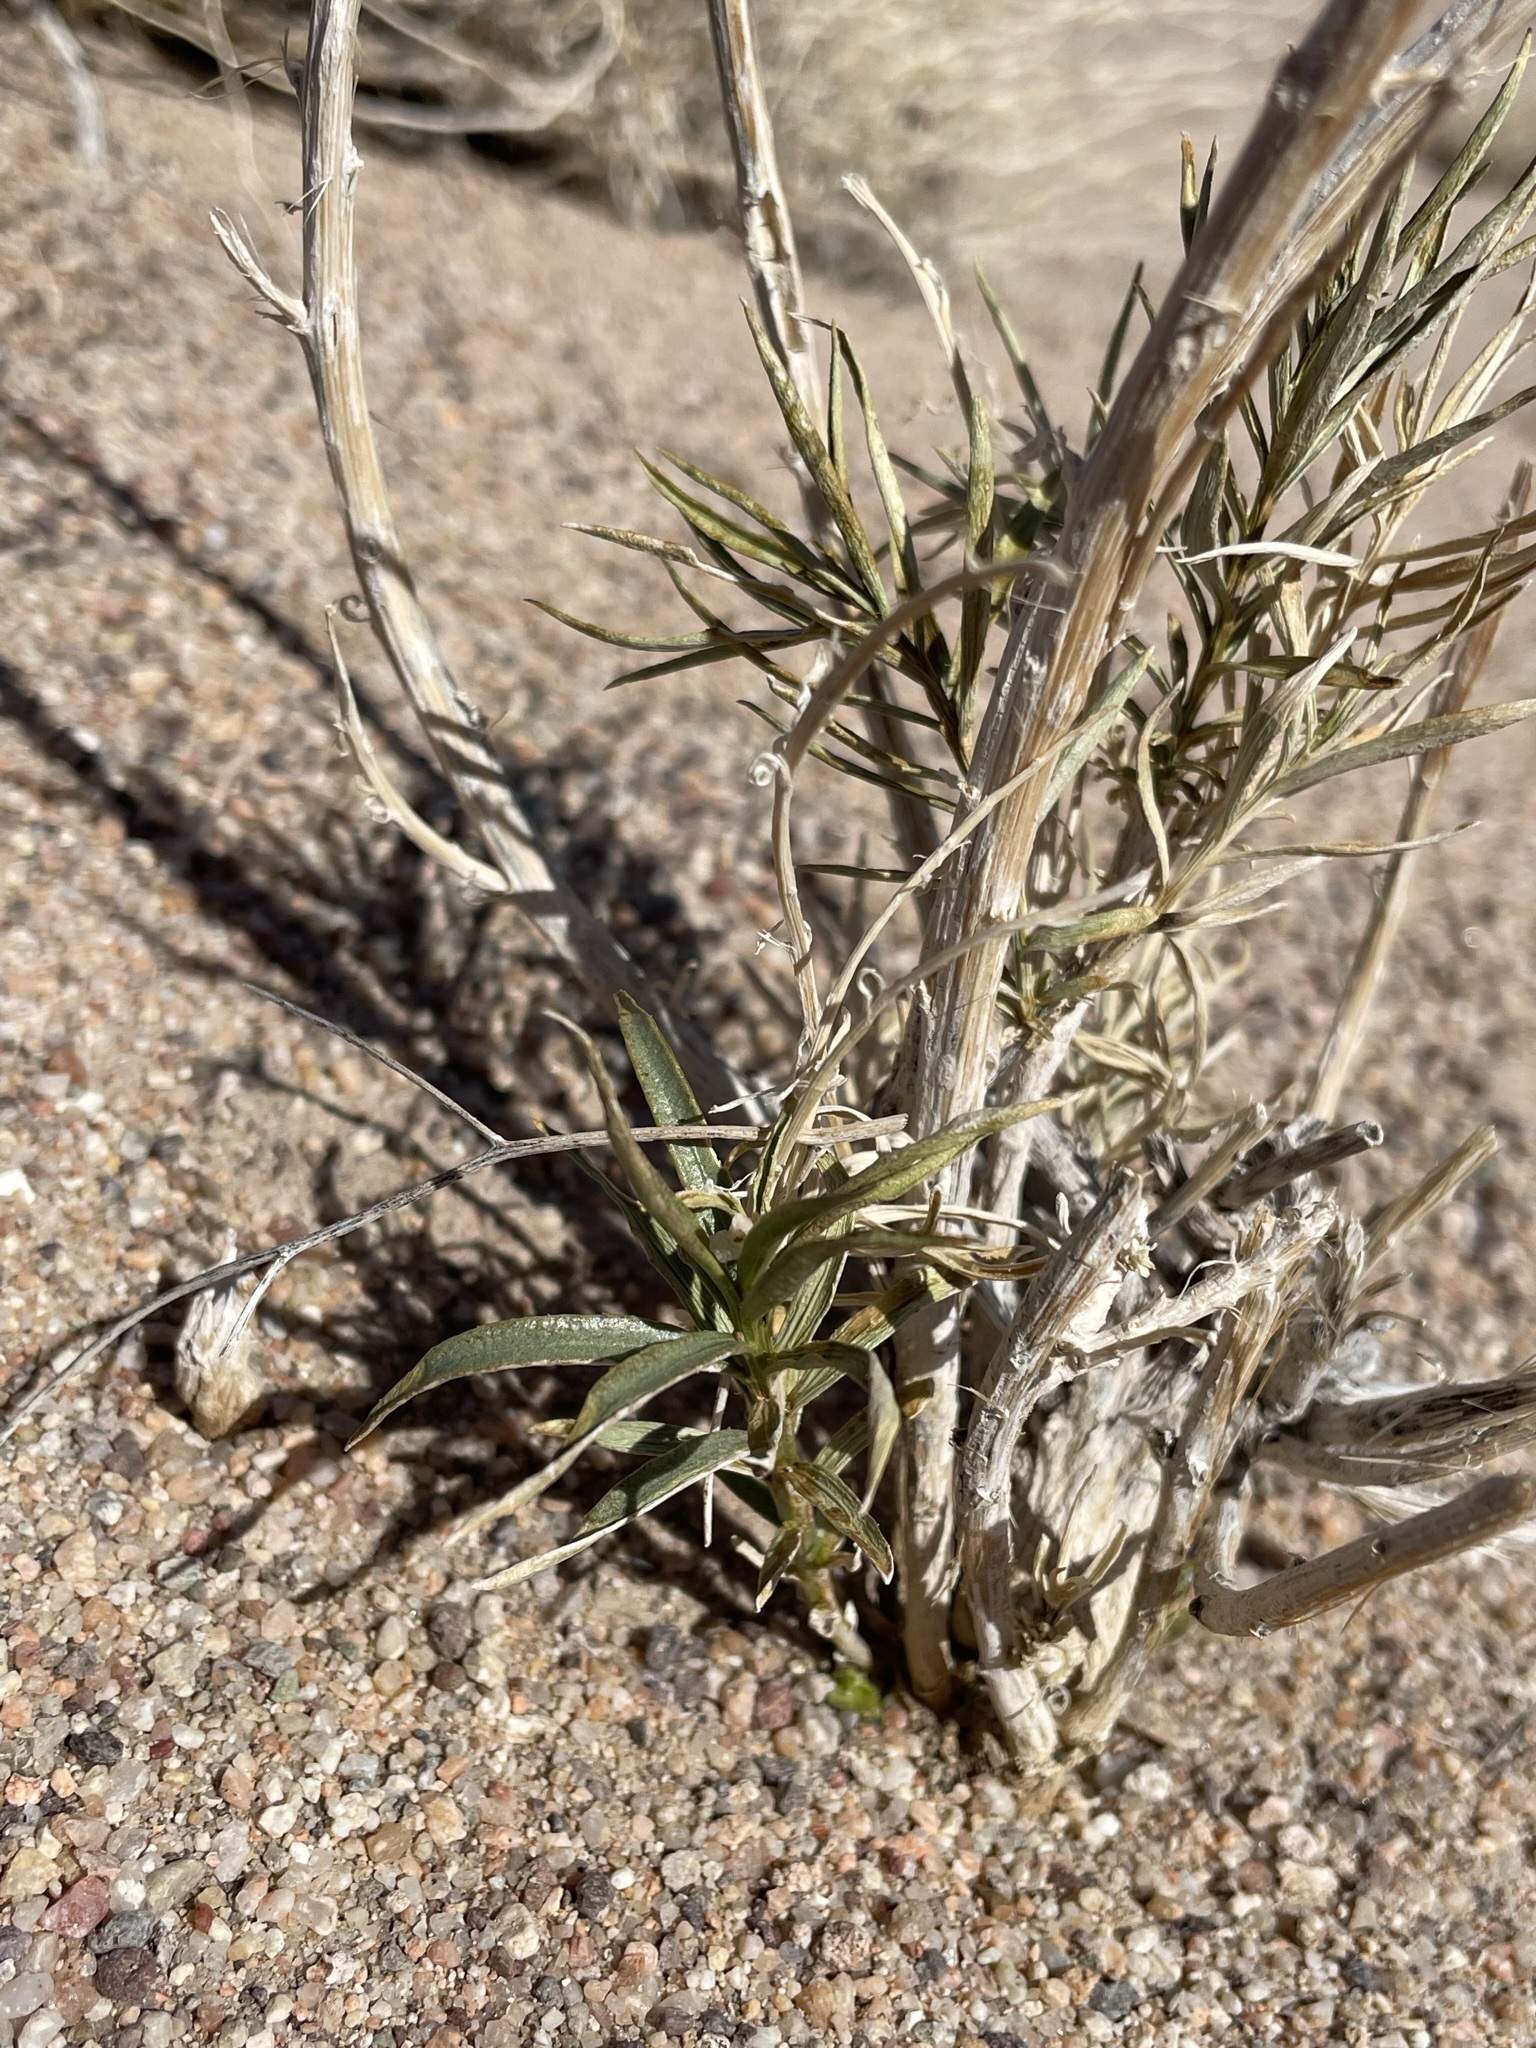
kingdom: Plantae
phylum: Tracheophyta
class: Magnoliopsida
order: Malpighiales
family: Euphorbiaceae
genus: Stillingia
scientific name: Stillingia paucidentata
